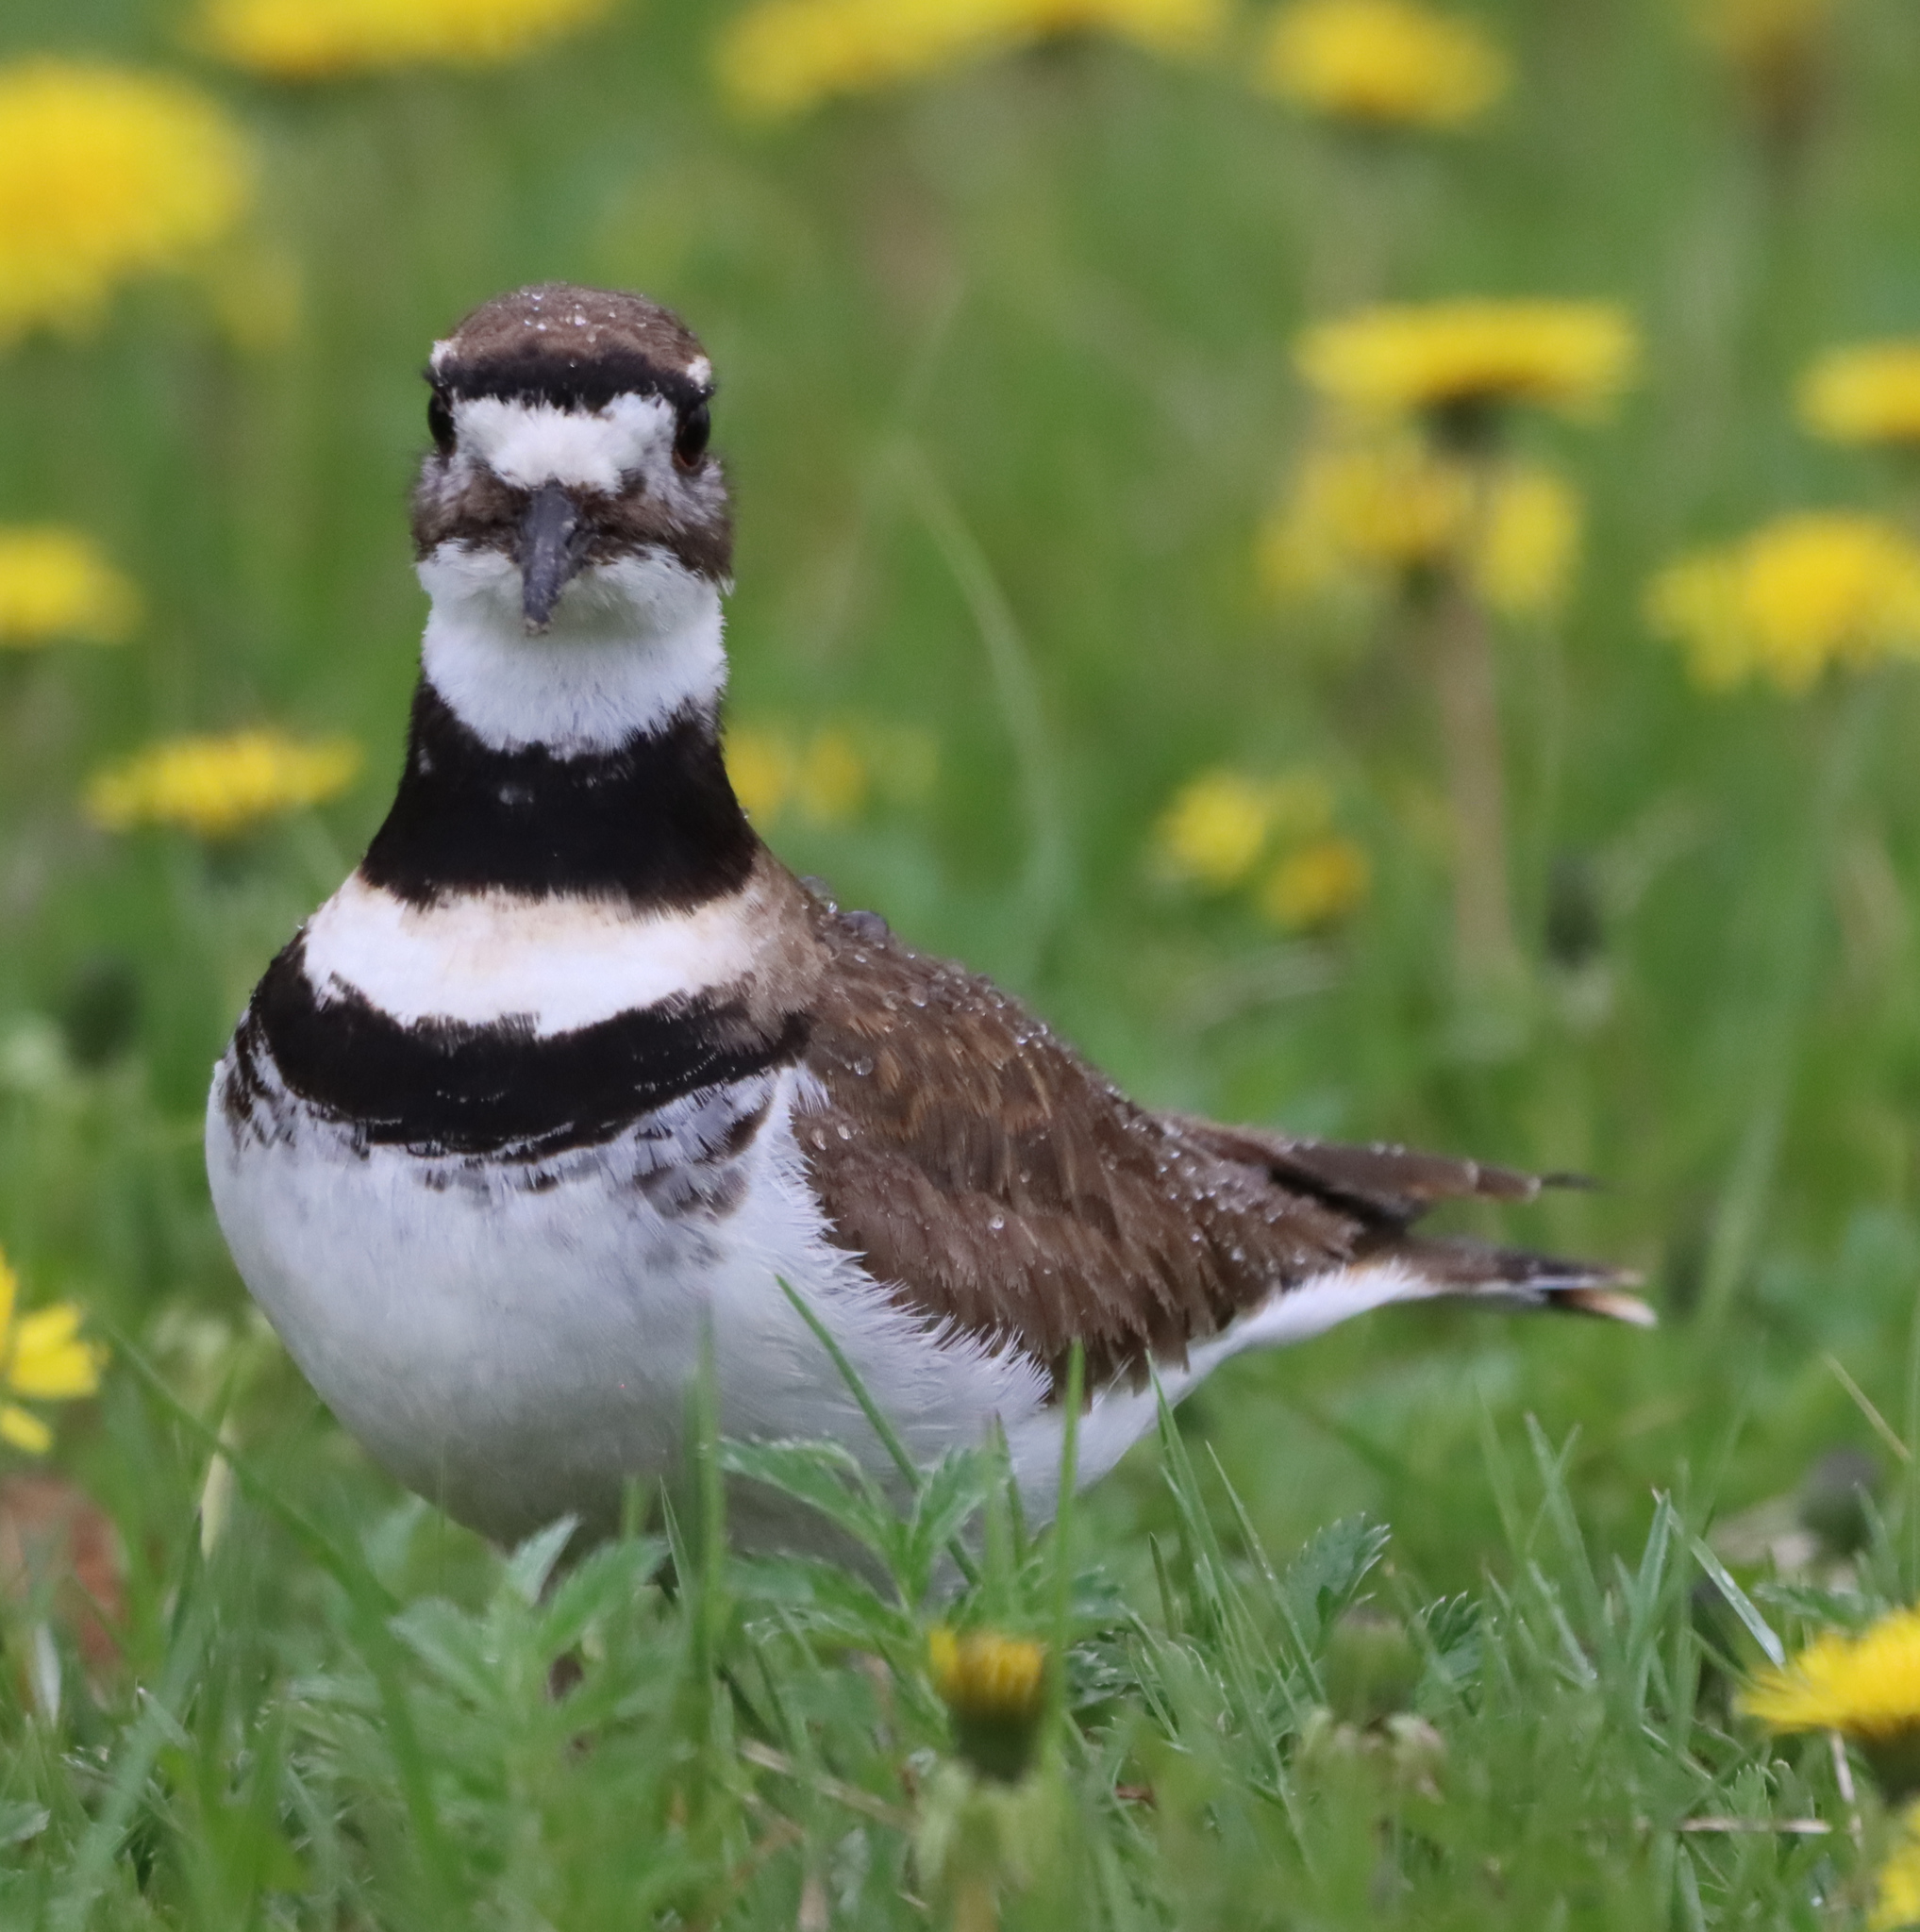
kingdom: Animalia
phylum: Chordata
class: Aves
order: Charadriiformes
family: Charadriidae
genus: Charadrius
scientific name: Charadrius vociferus
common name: Killdeer
